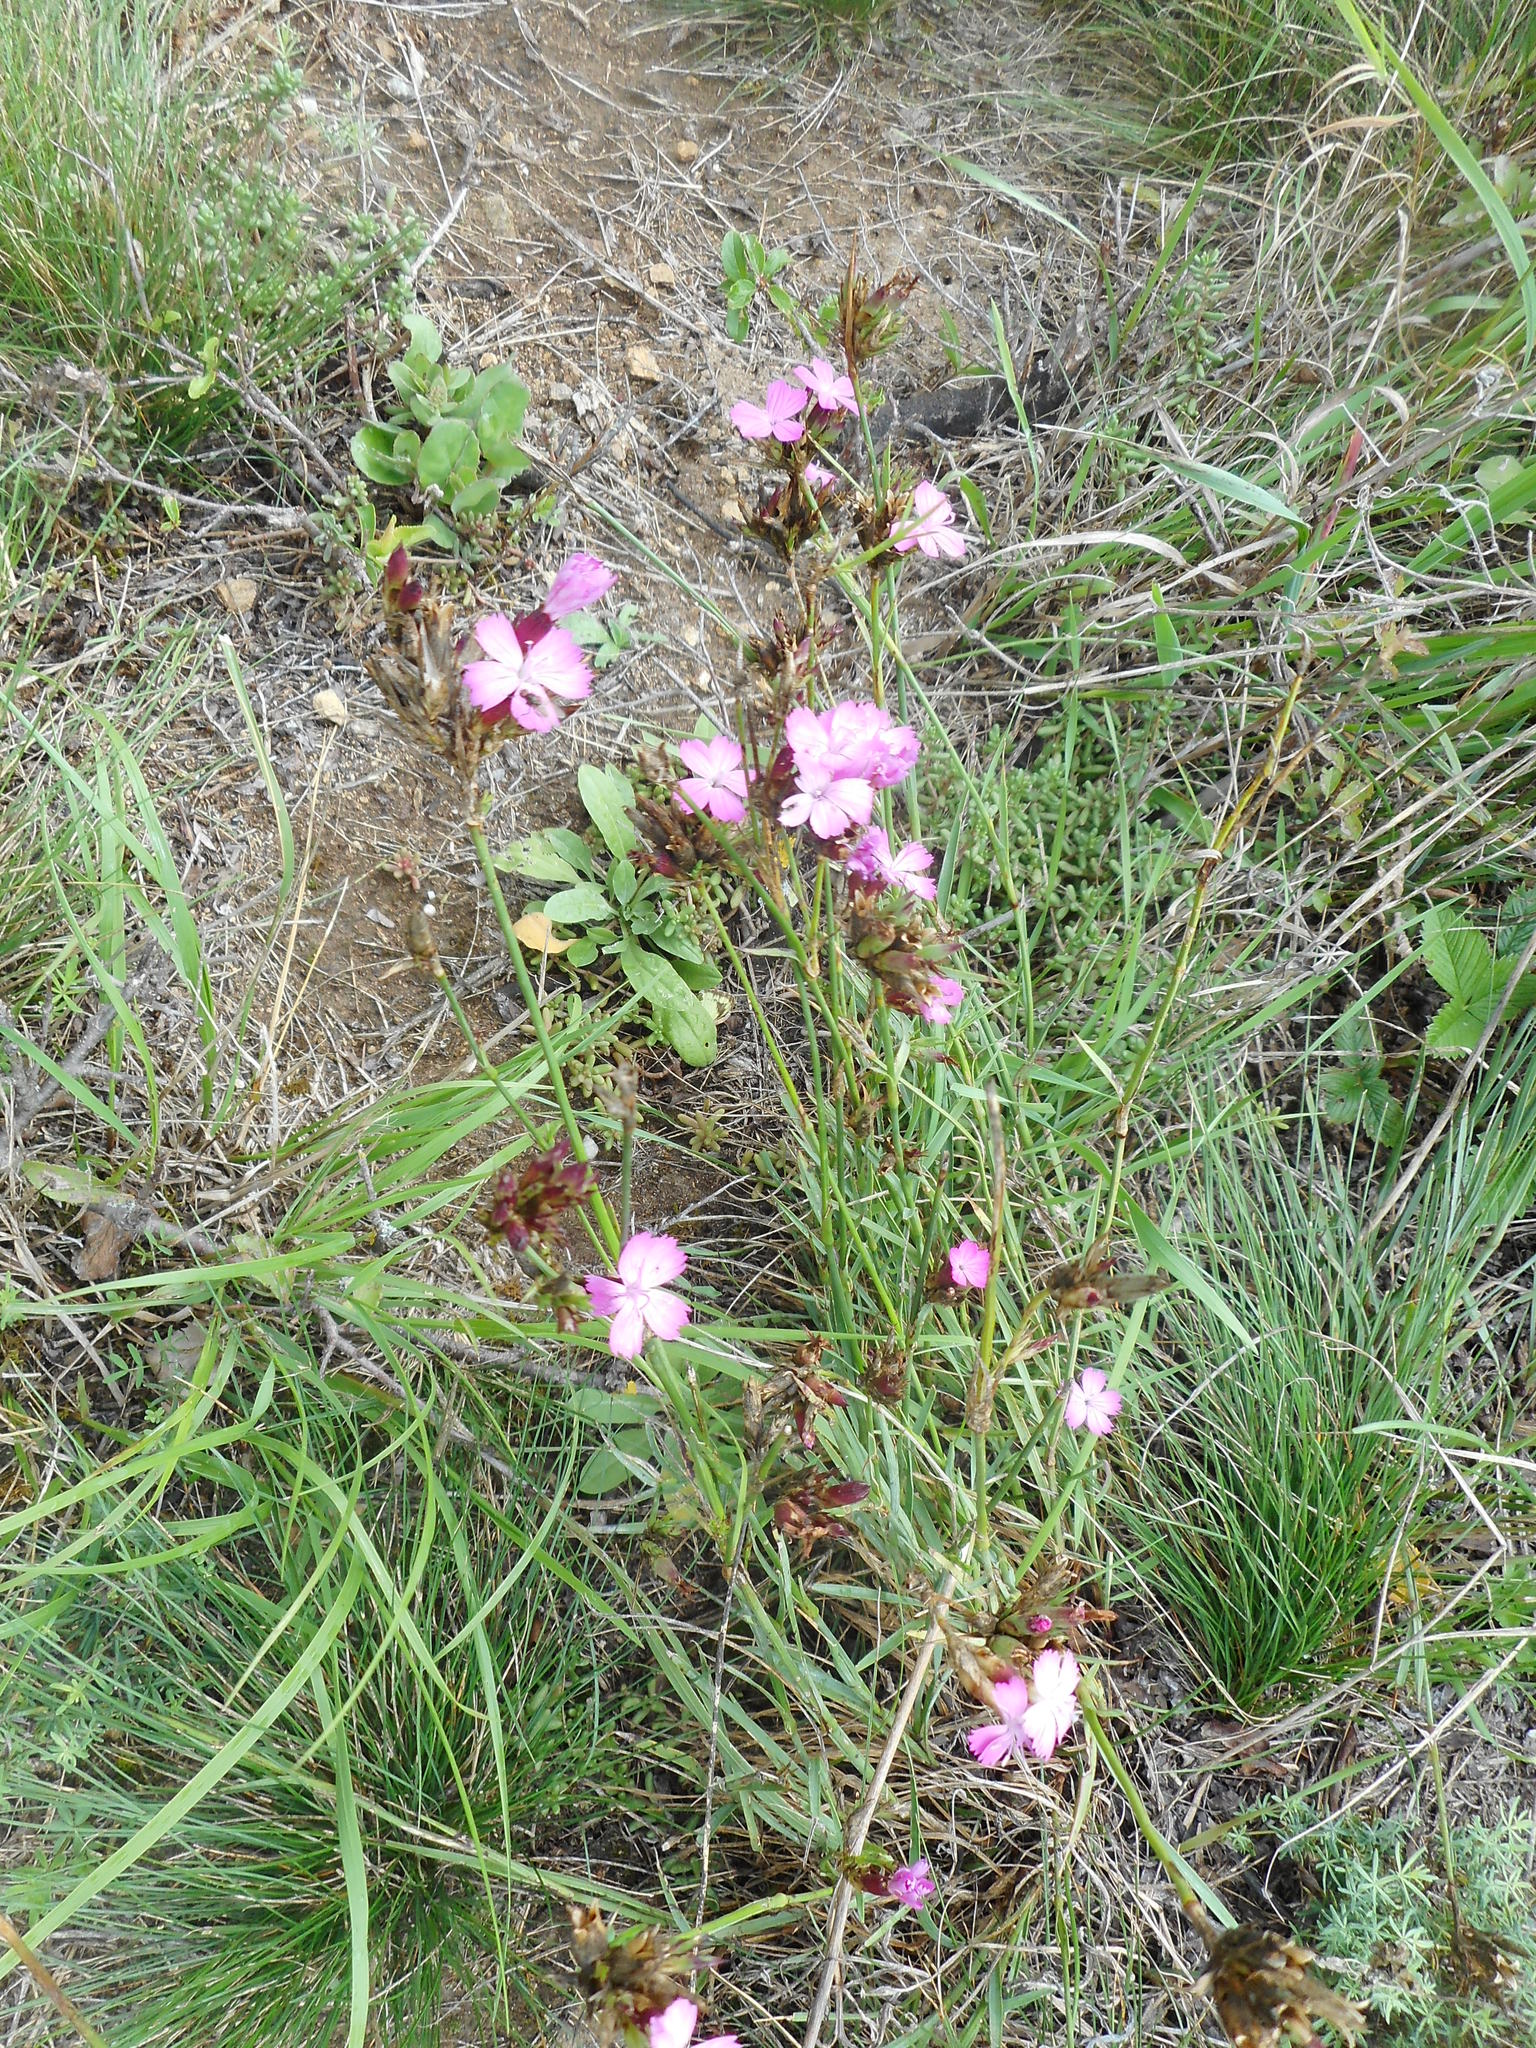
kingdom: Plantae
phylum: Tracheophyta
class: Magnoliopsida
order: Caryophyllales
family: Caryophyllaceae
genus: Dianthus
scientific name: Dianthus carthusianorum
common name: Carthusian pink
